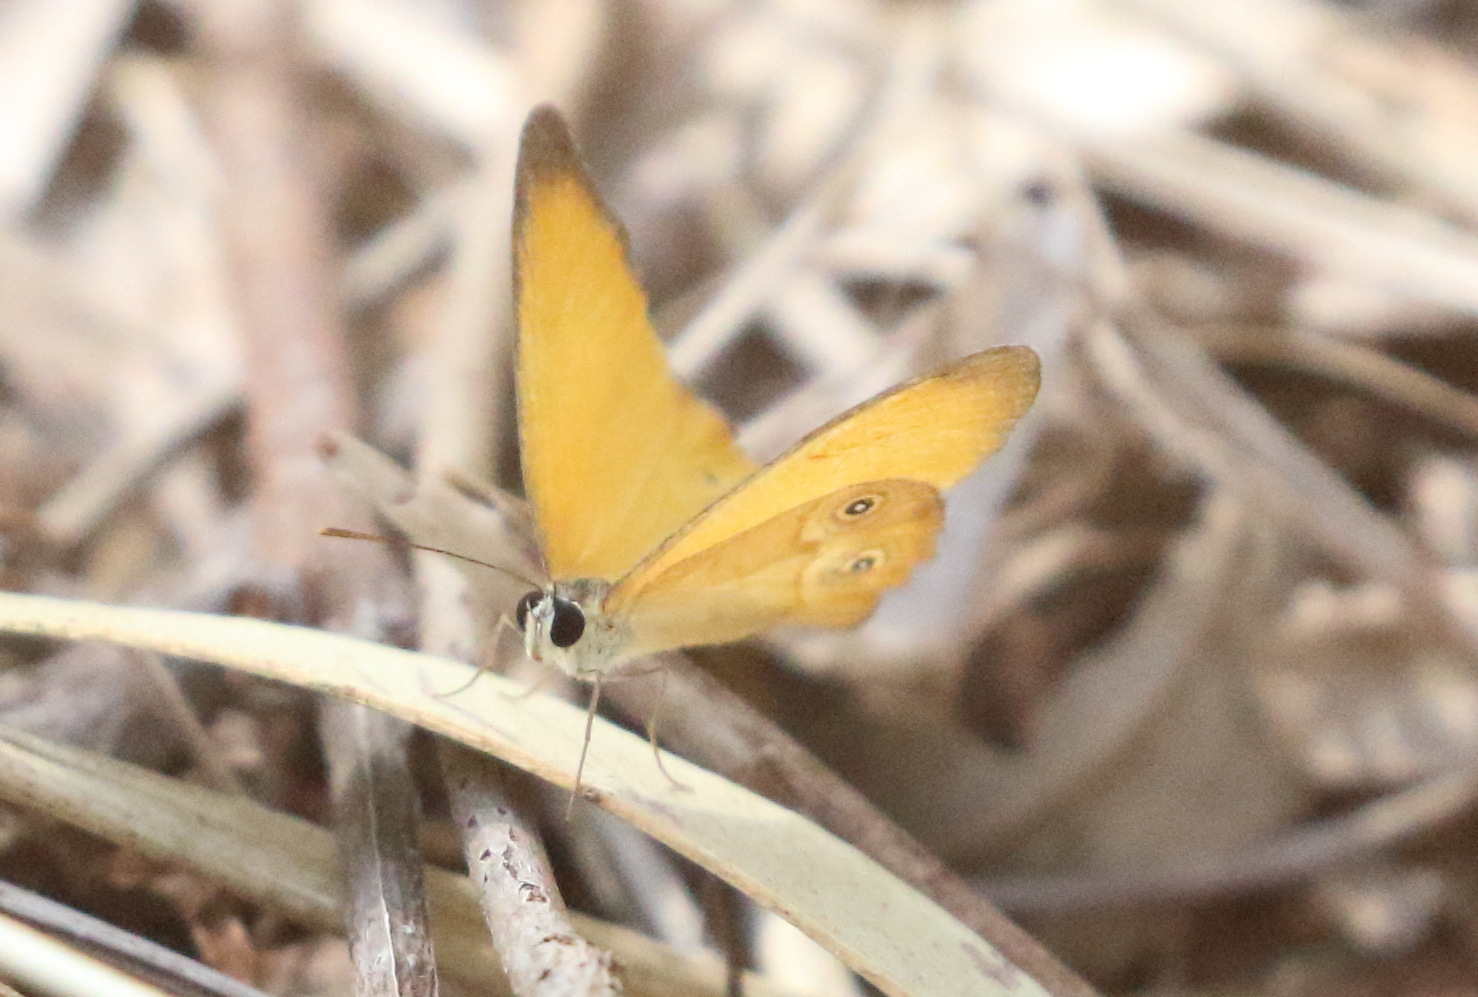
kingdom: Animalia
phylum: Arthropoda
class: Insecta
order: Lepidoptera
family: Nymphalidae
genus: Hypocysta
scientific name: Hypocysta adiante
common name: Orange ringlet
